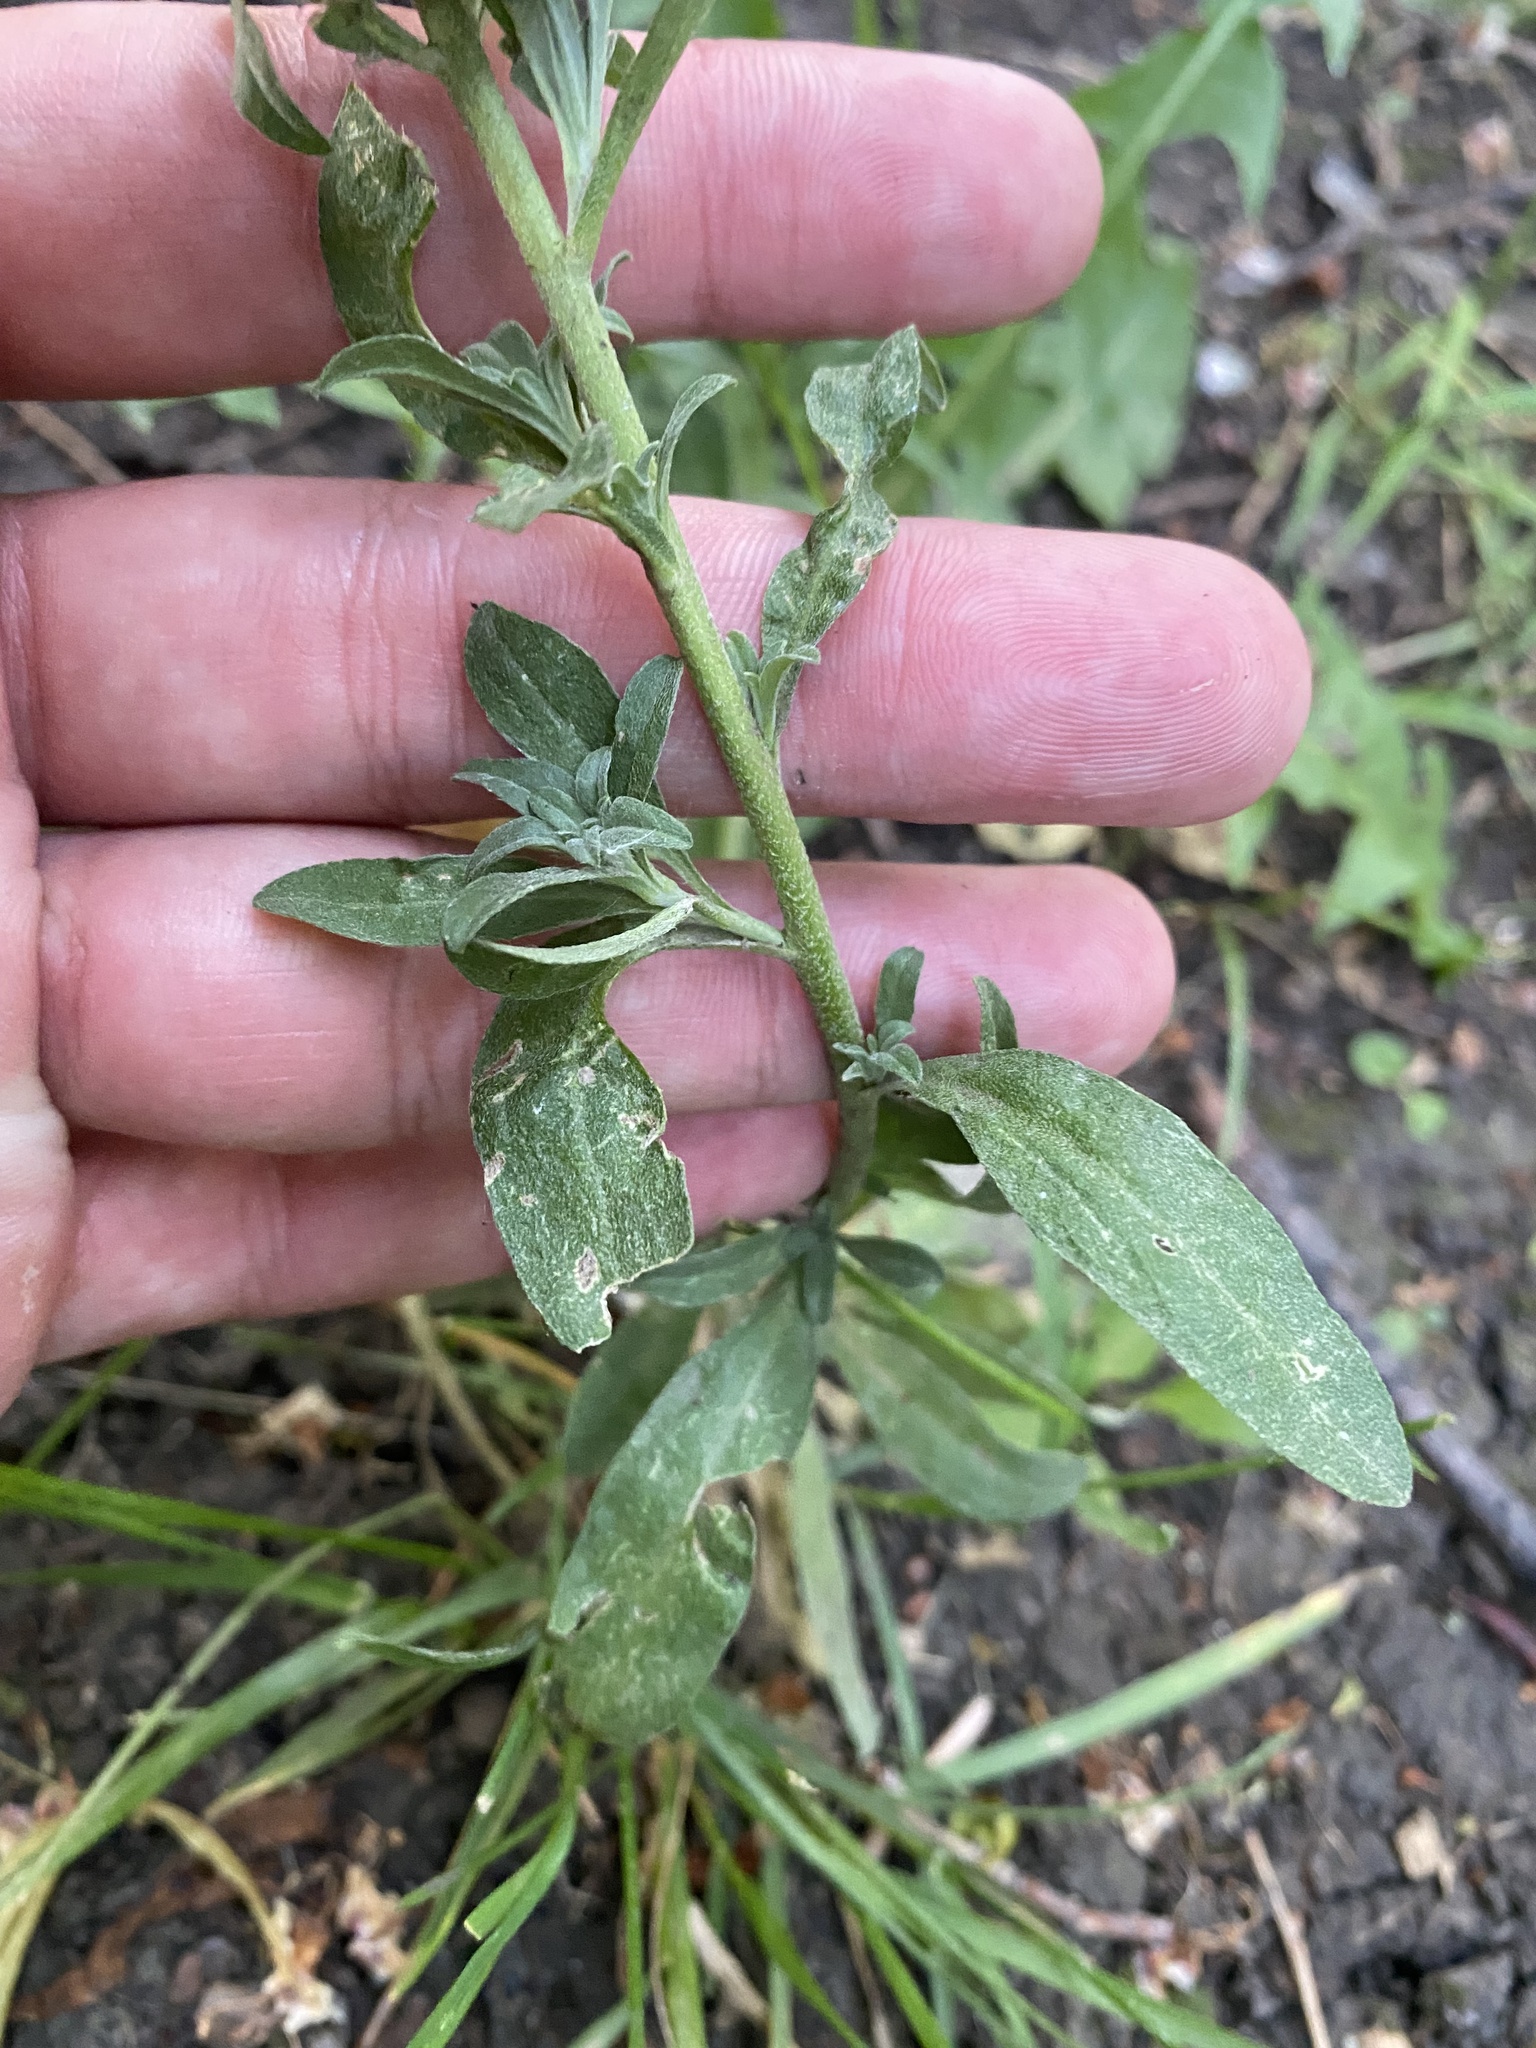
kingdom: Plantae
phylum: Tracheophyta
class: Magnoliopsida
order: Brassicales
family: Brassicaceae
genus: Berteroa
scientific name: Berteroa incana
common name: Hoary alison
